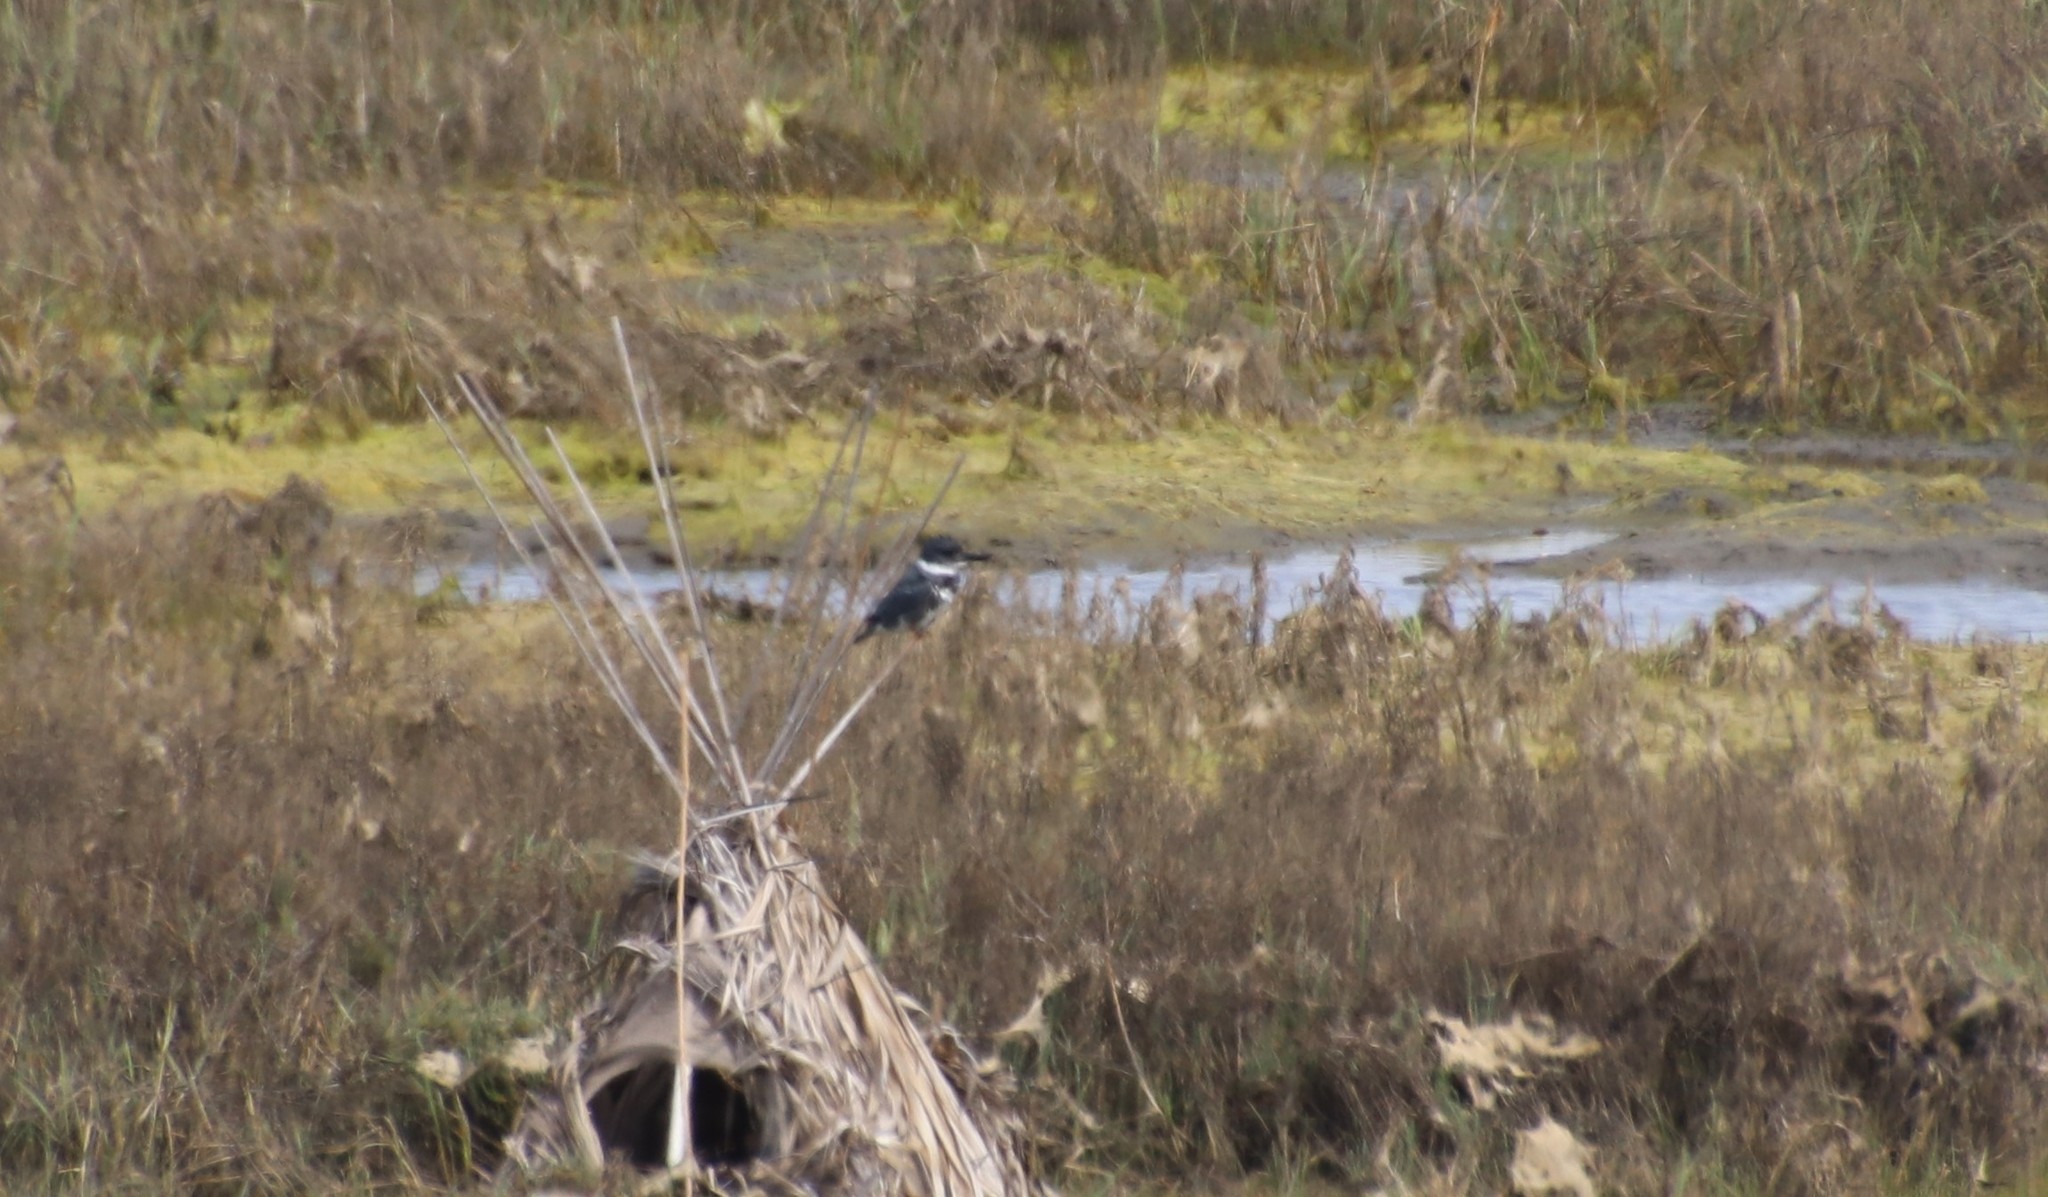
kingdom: Animalia
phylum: Chordata
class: Aves
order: Coraciiformes
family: Alcedinidae
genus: Megaceryle
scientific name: Megaceryle alcyon
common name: Belted kingfisher
